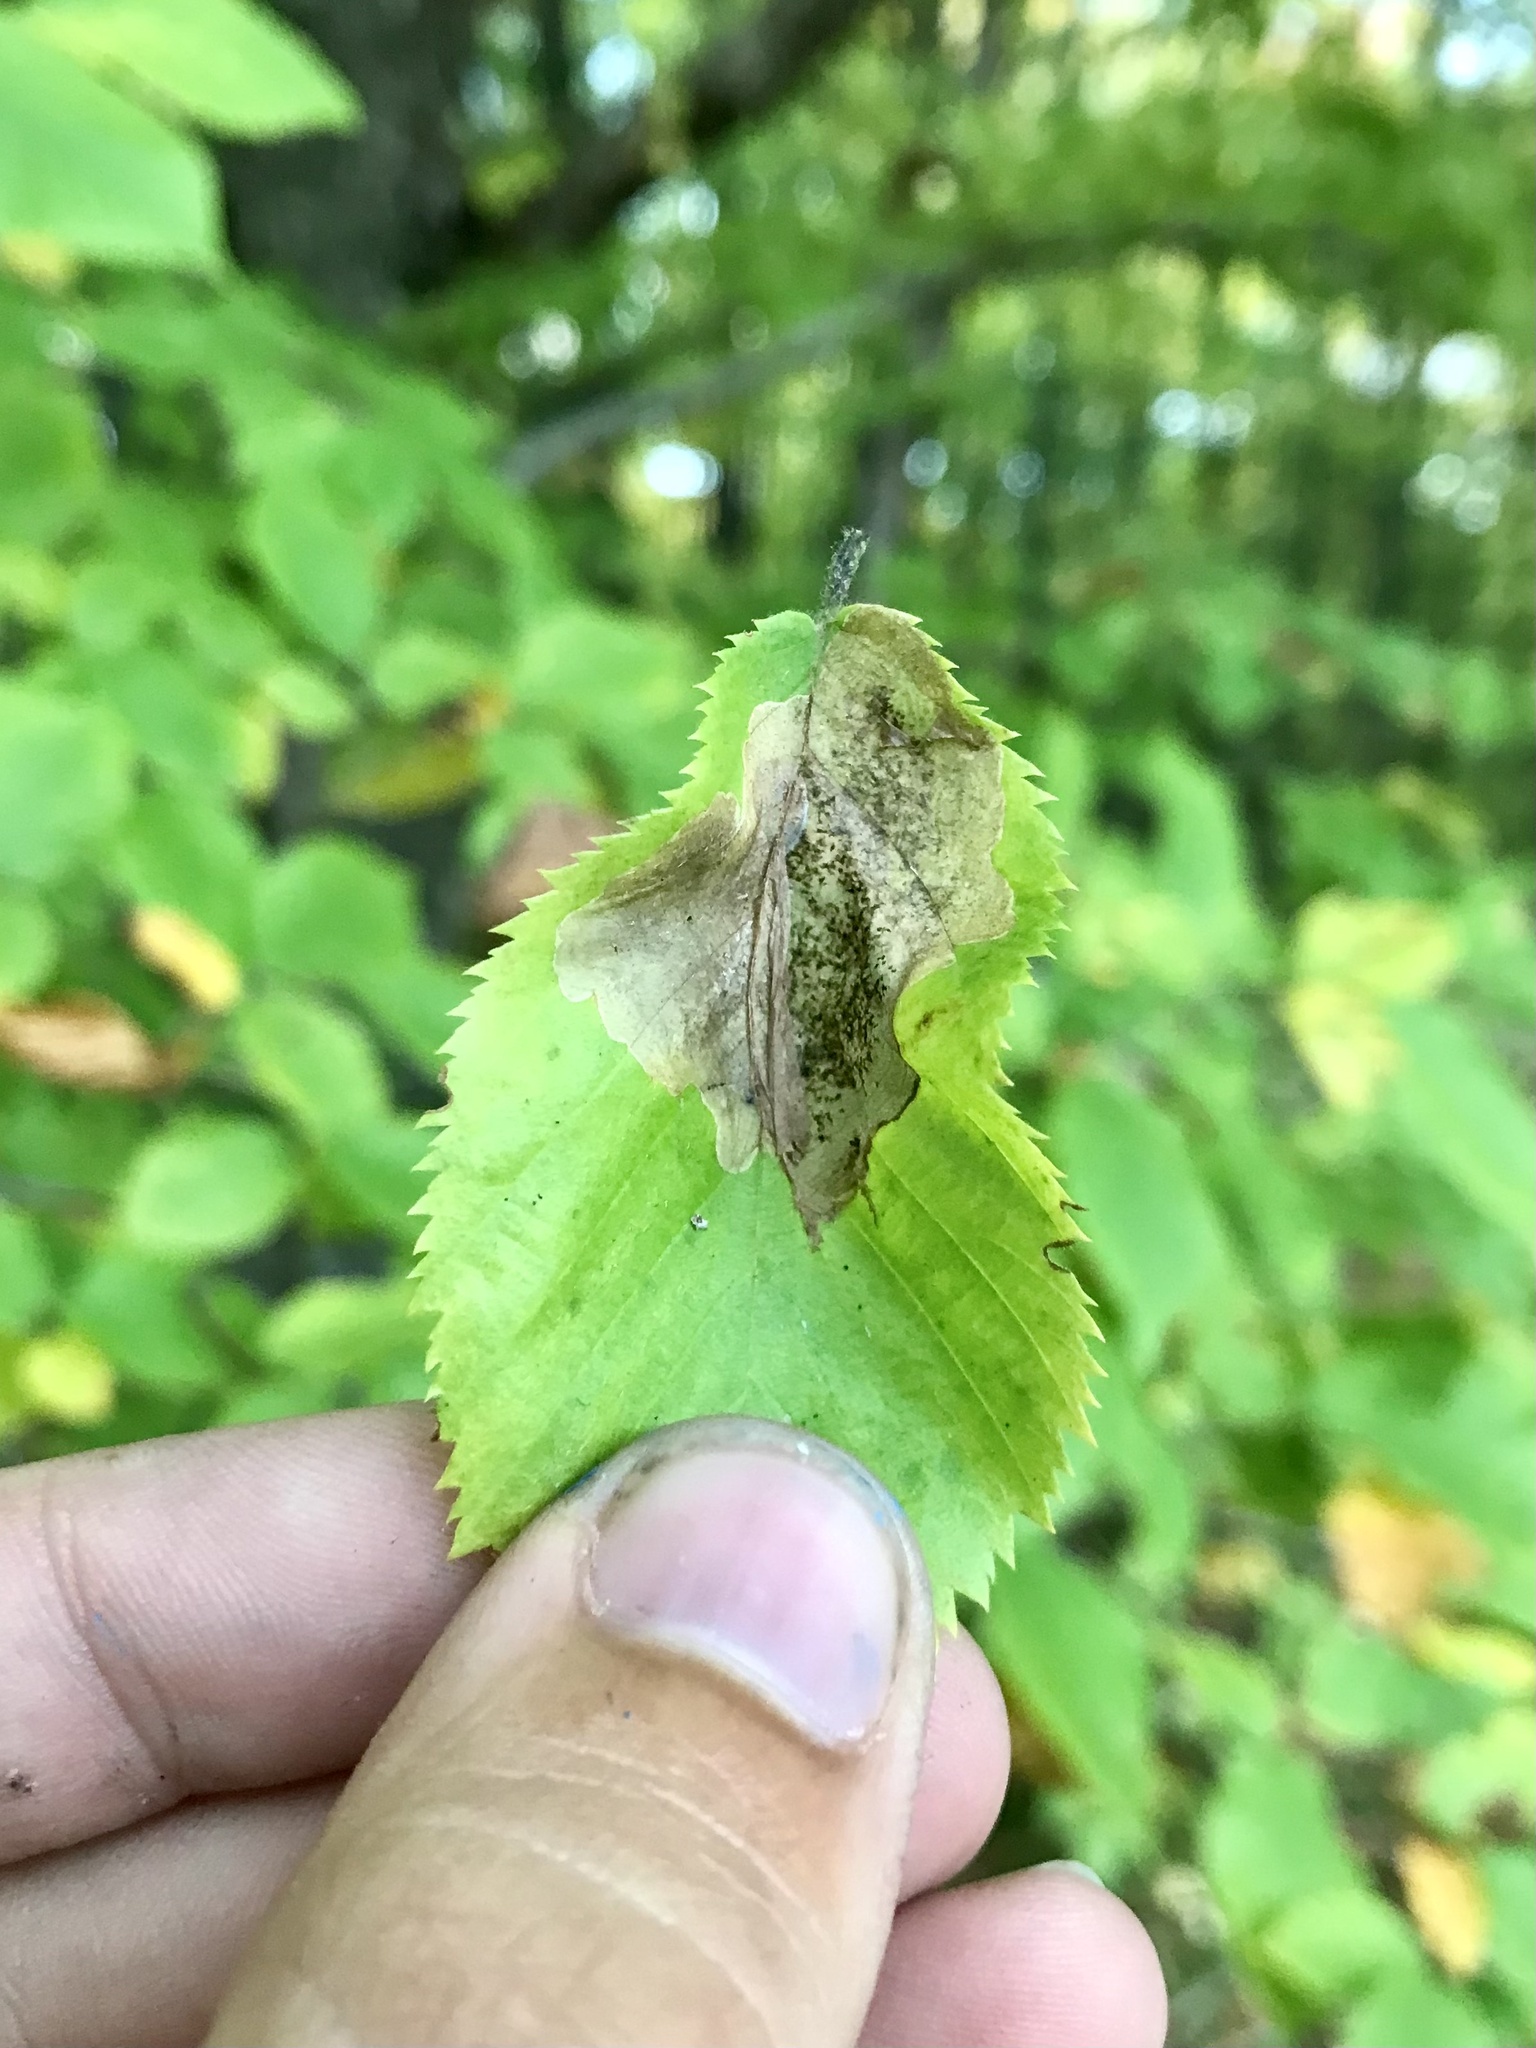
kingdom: Animalia
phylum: Arthropoda
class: Insecta
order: Lepidoptera
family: Gracillariidae
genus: Cameraria
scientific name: Cameraria lentella
